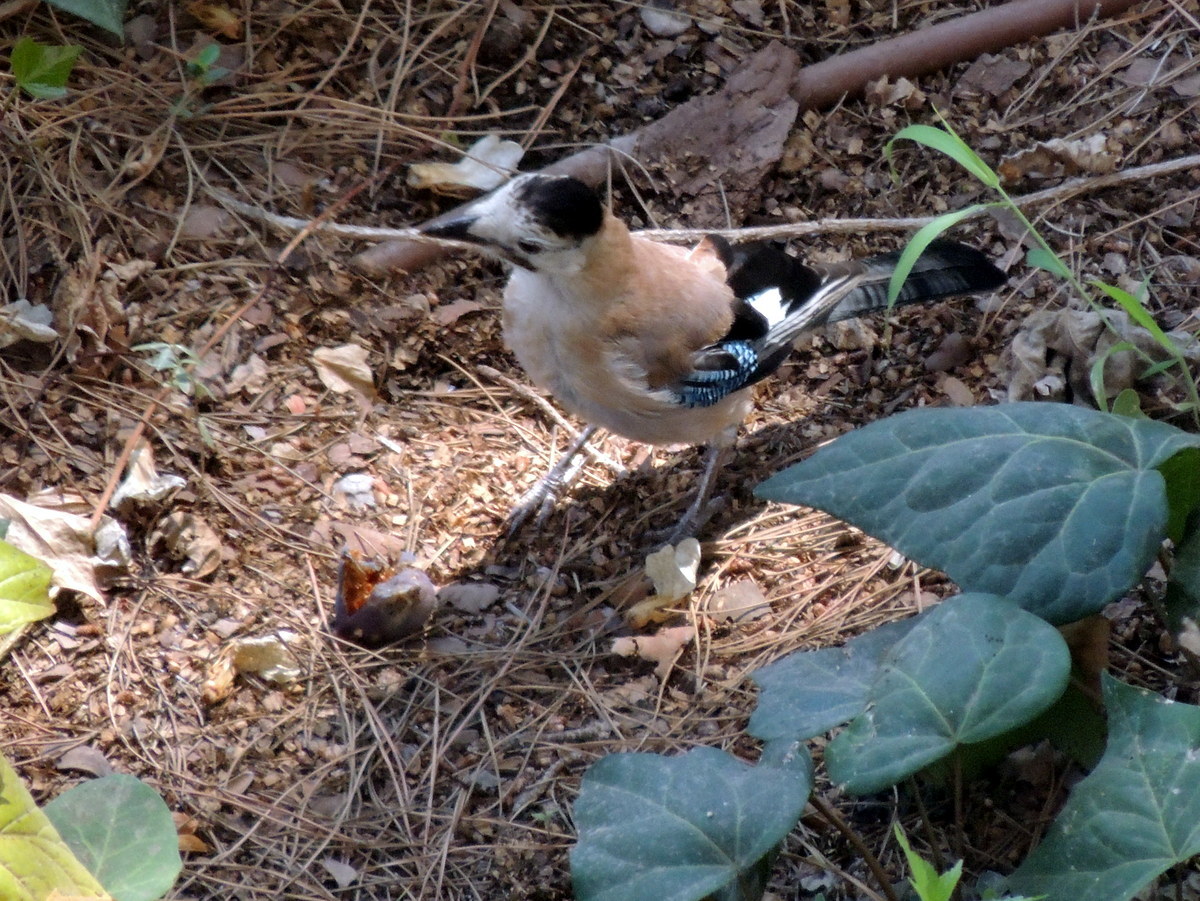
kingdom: Animalia
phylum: Chordata
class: Aves
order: Passeriformes
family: Corvidae
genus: Garrulus
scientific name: Garrulus glandarius
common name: Eurasian jay
